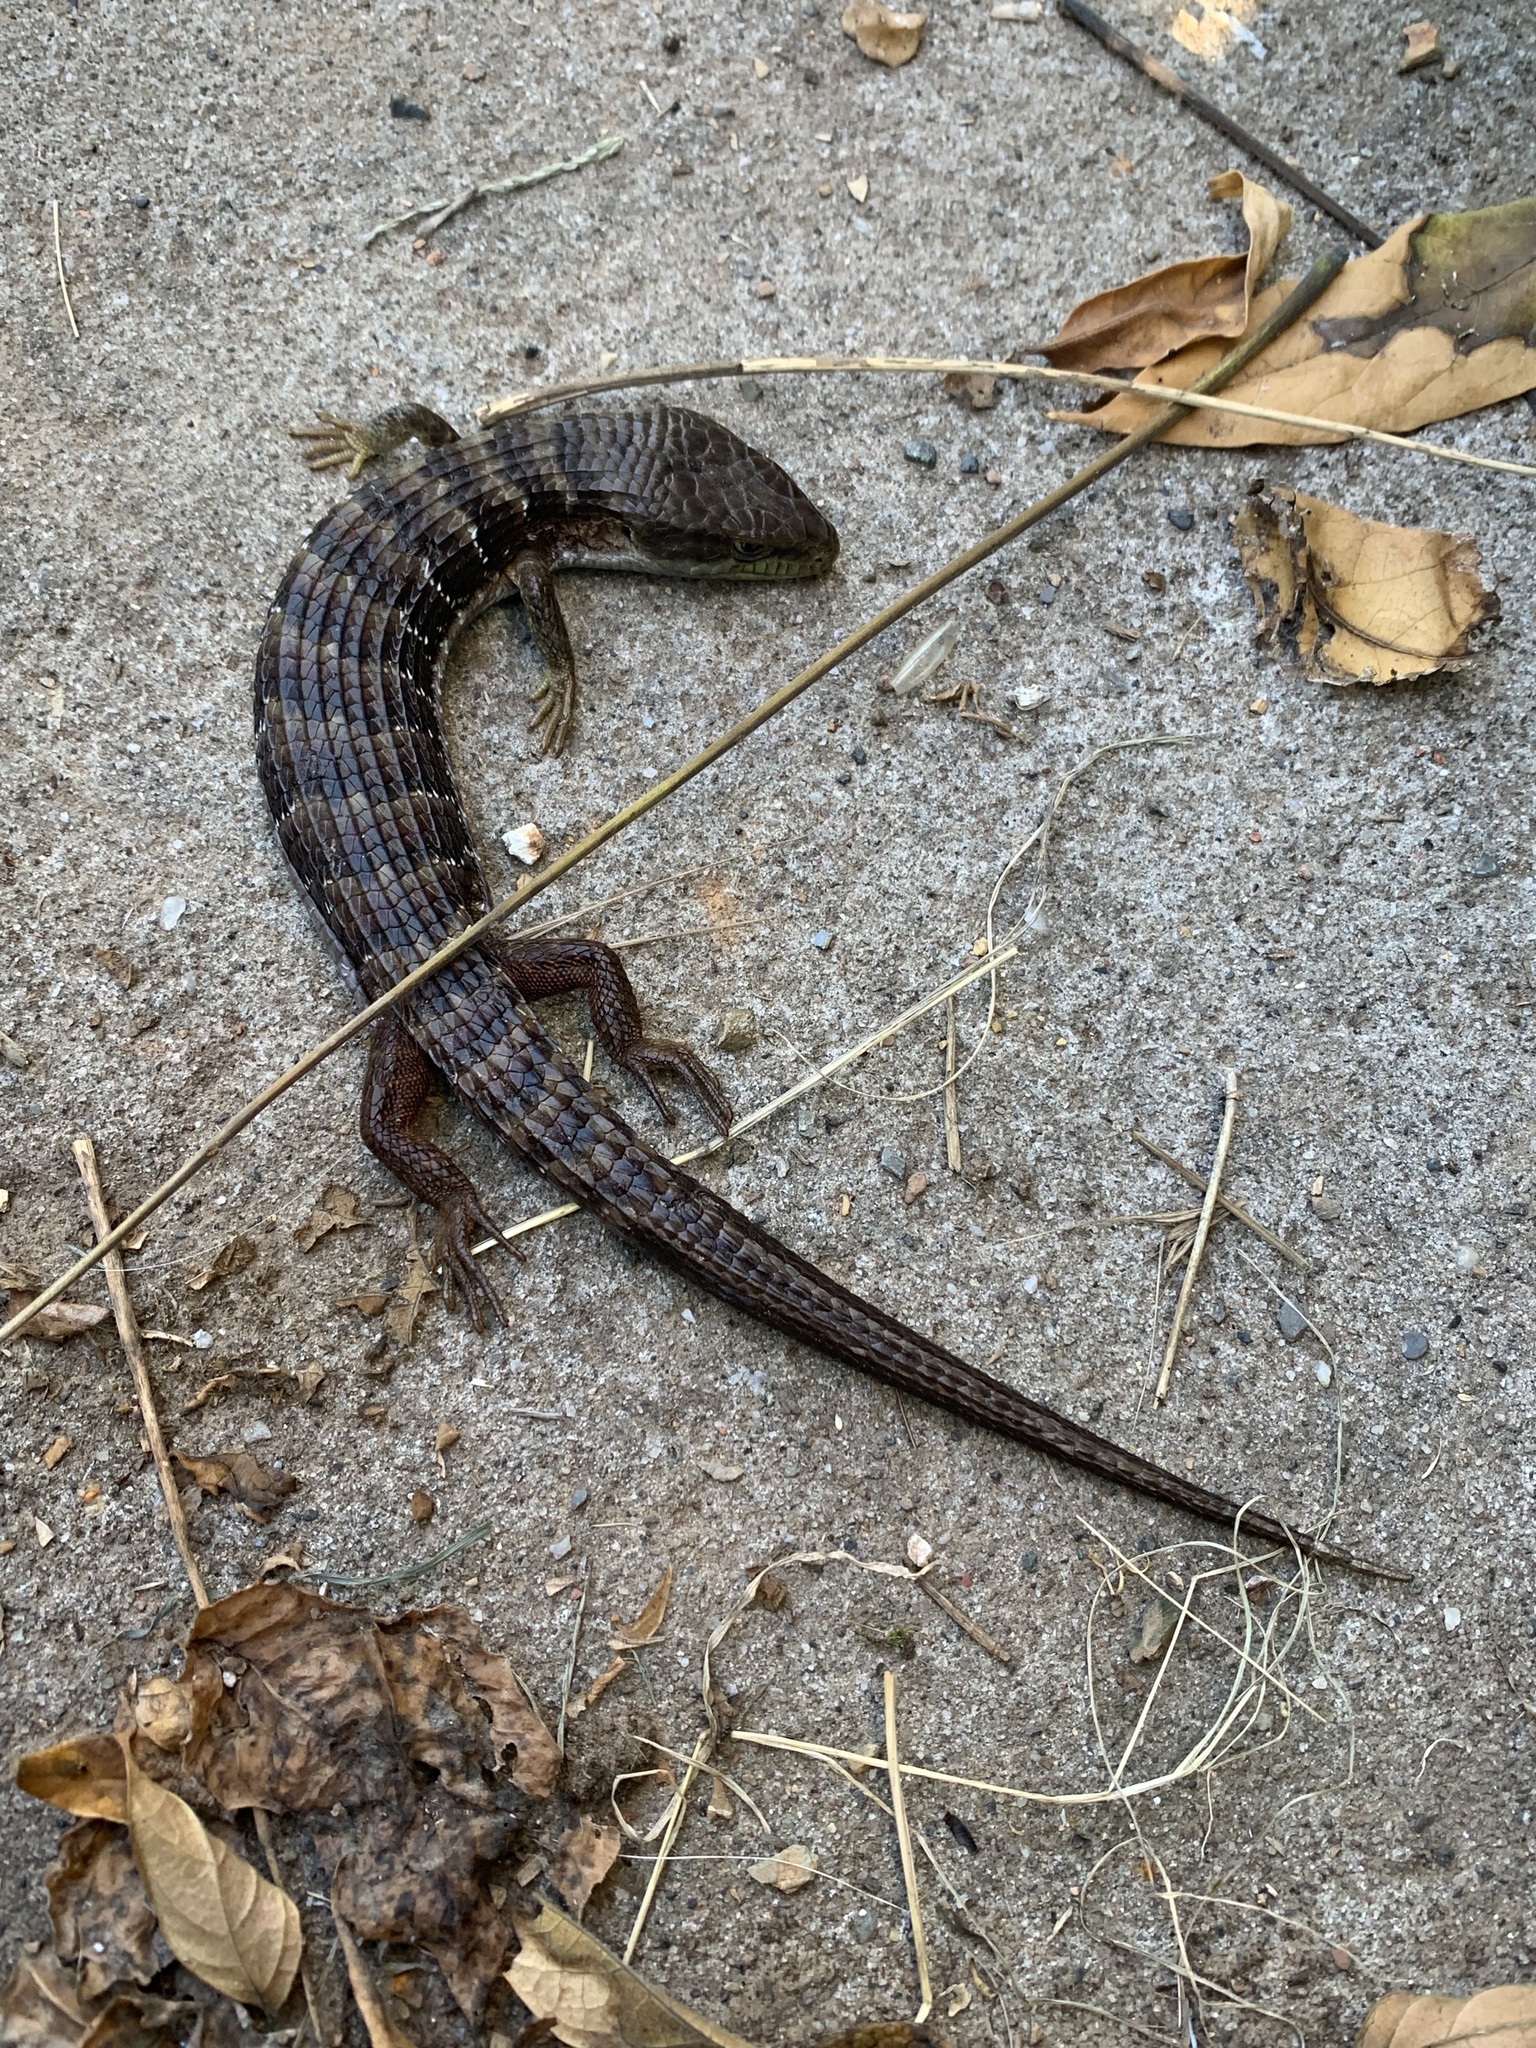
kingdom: Animalia
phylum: Chordata
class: Squamata
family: Anguidae
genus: Elgaria
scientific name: Elgaria multicarinata
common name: Southern alligator lizard
